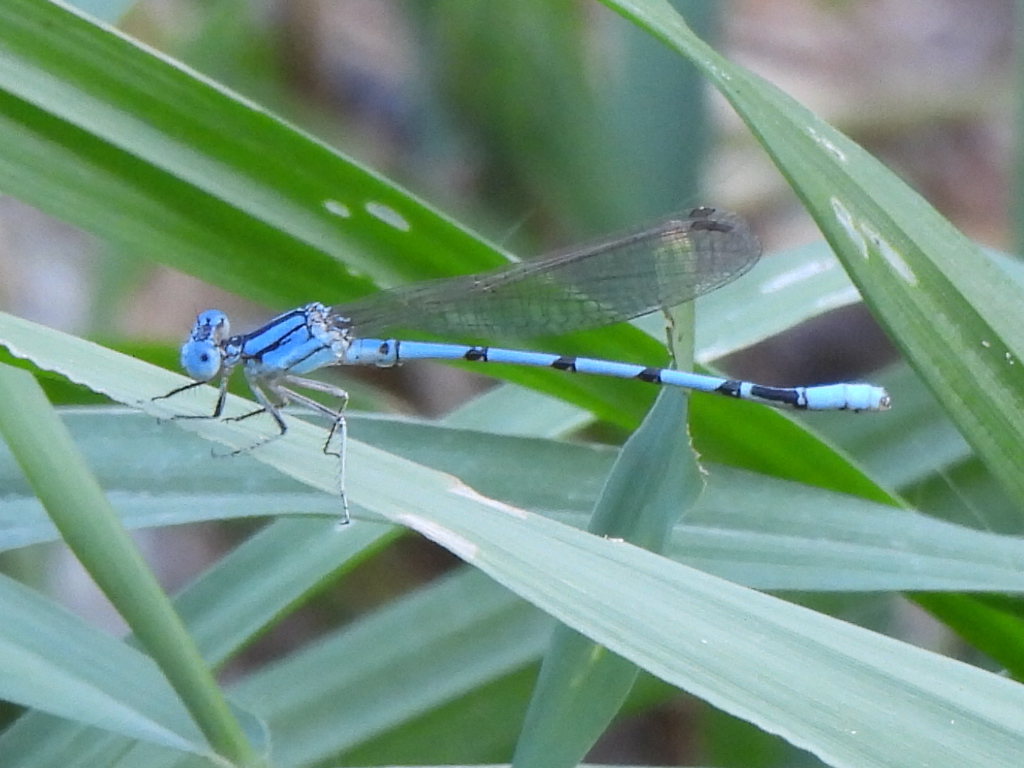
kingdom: Animalia
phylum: Arthropoda
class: Insecta
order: Odonata
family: Coenagrionidae
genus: Argia
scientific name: Argia nahuana
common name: Aztec dancer
